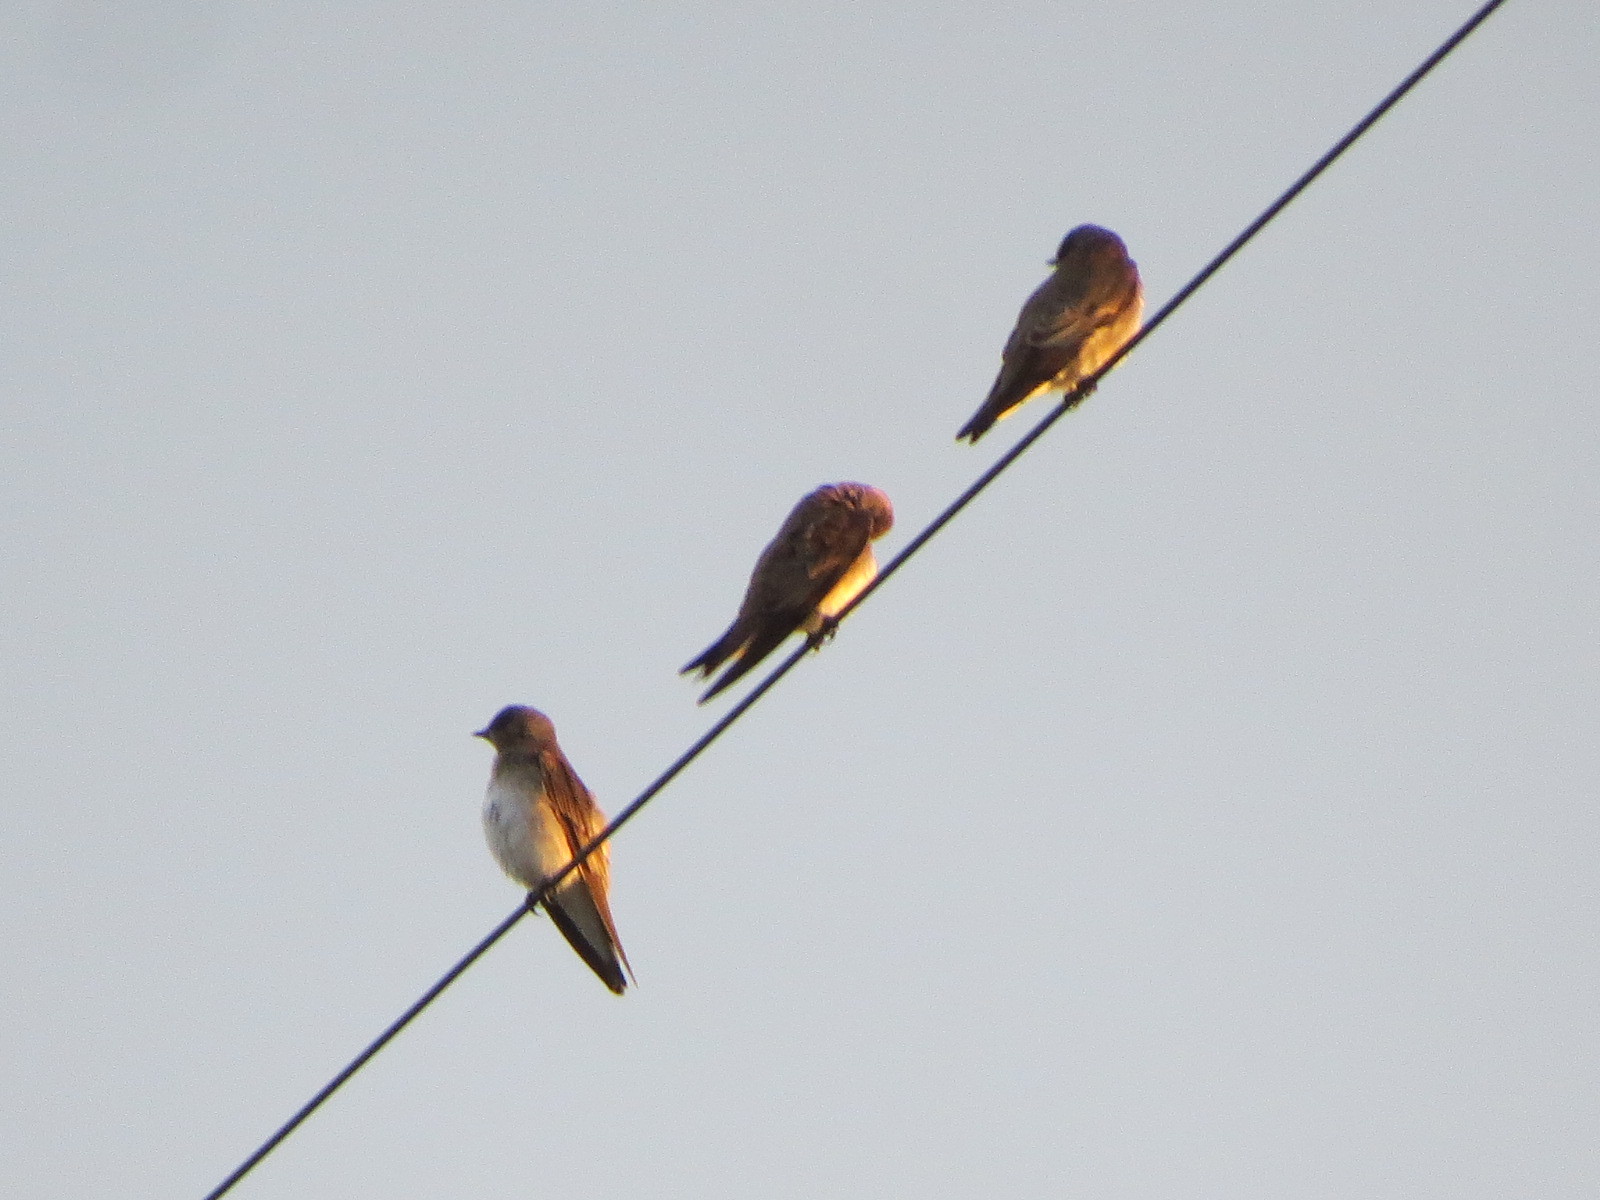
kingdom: Animalia
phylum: Chordata
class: Aves
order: Passeriformes
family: Hirundinidae
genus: Stelgidopteryx
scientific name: Stelgidopteryx serripennis
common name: Northern rough-winged swallow
